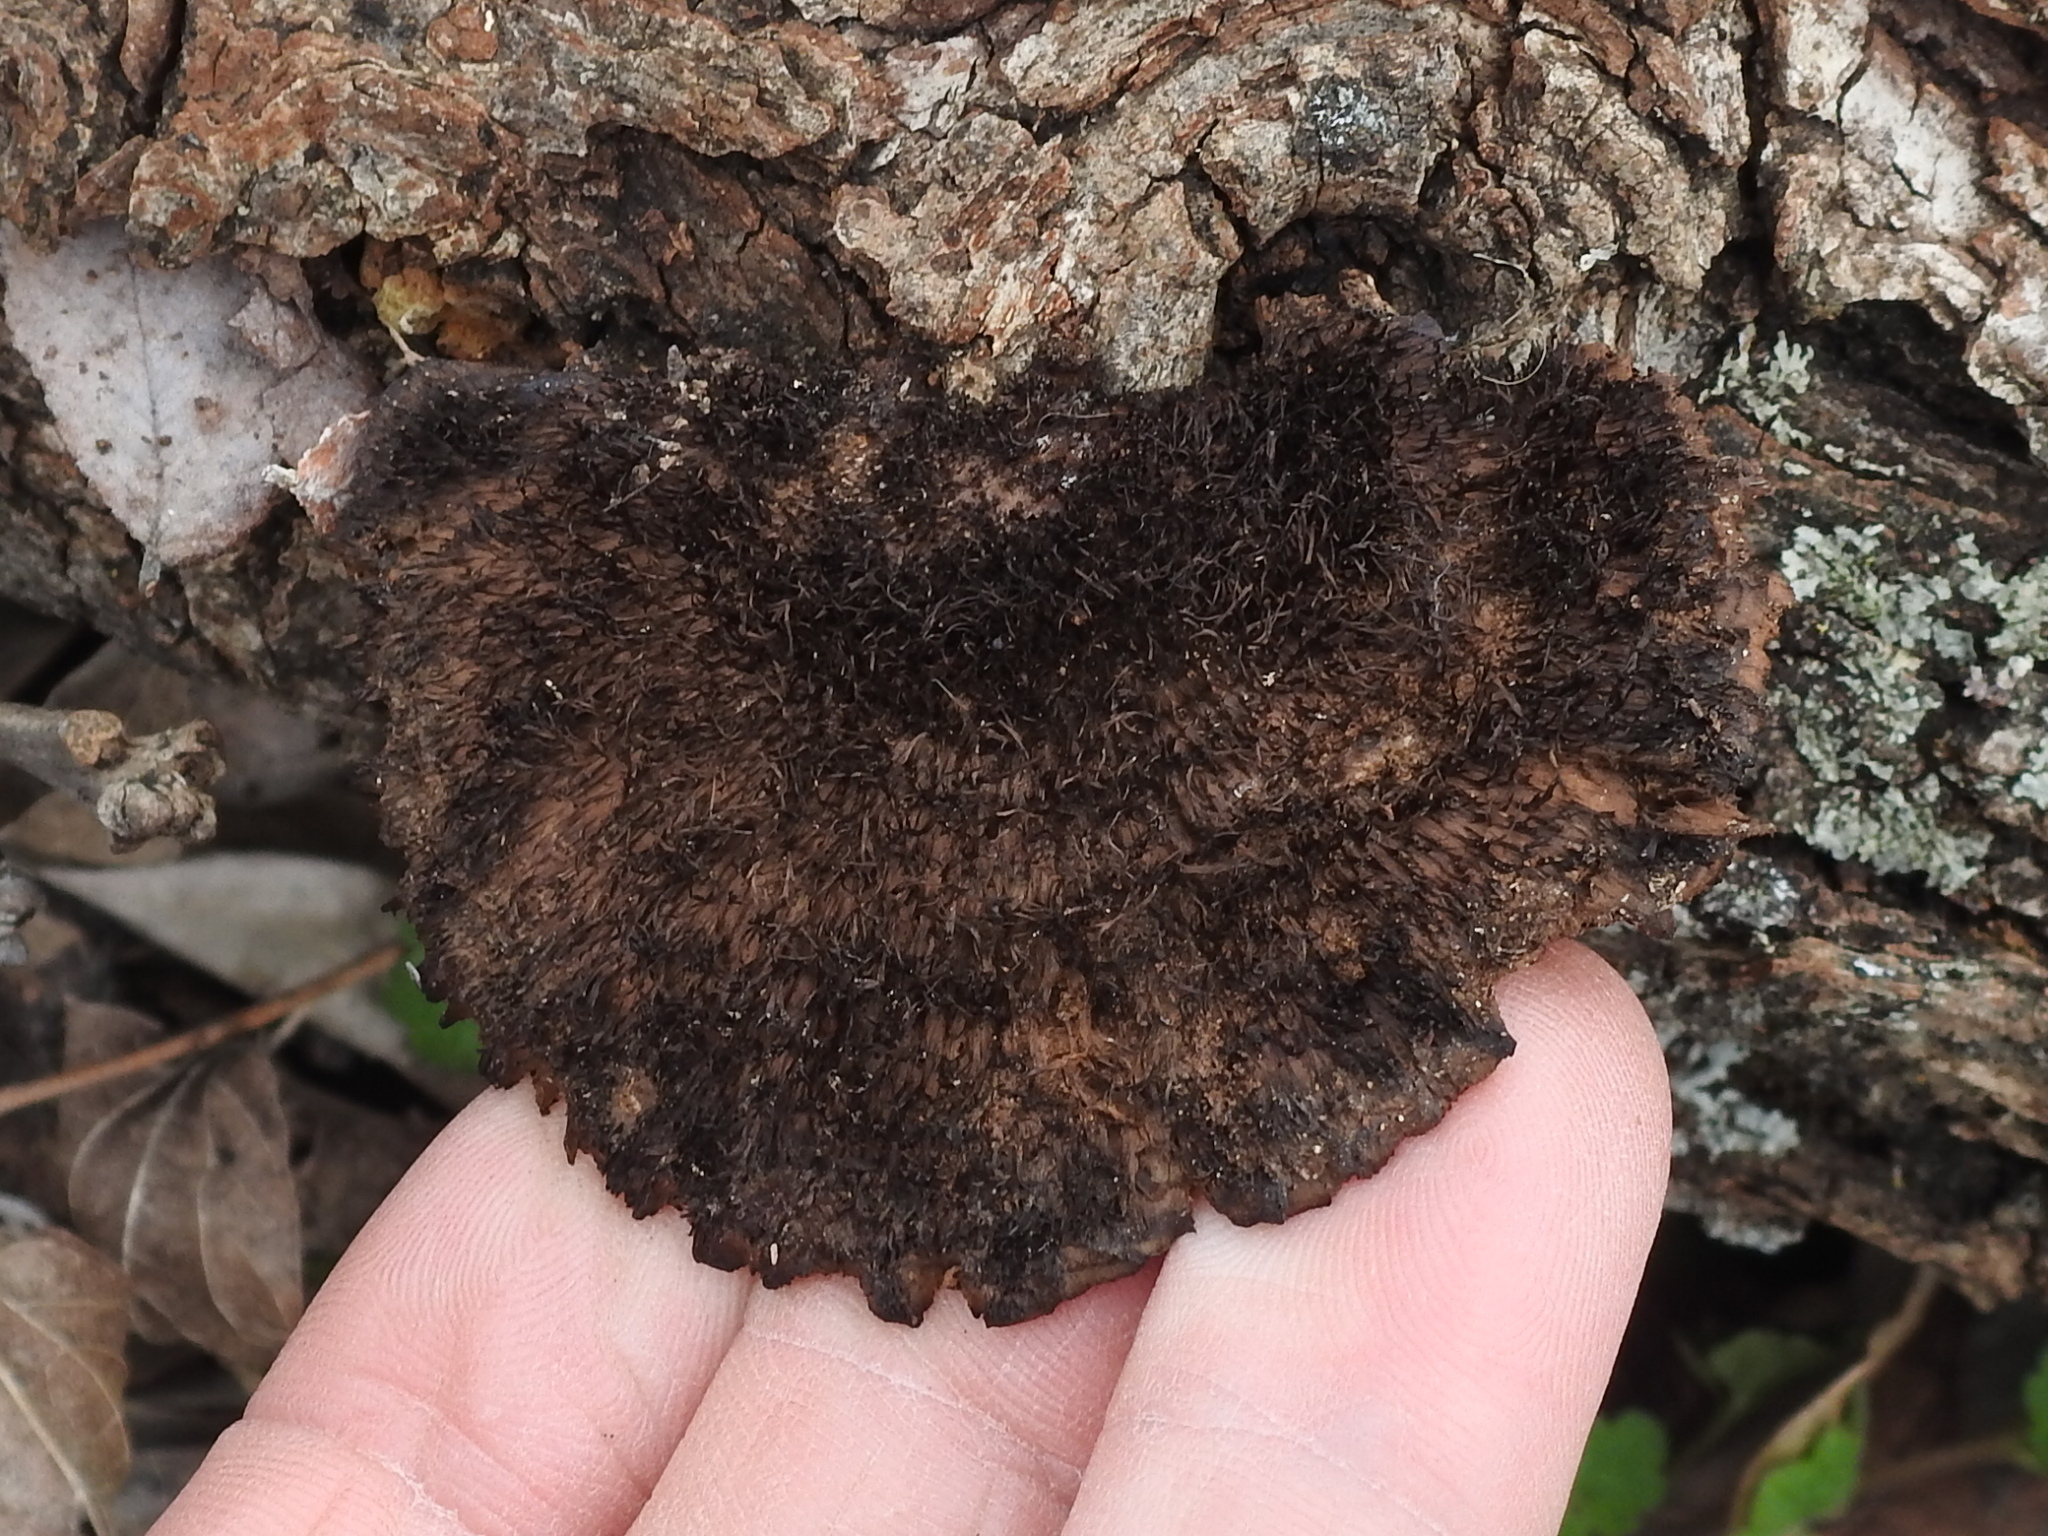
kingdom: Fungi
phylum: Basidiomycota
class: Agaricomycetes
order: Polyporales
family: Cerrenaceae
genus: Cerrena
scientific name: Cerrena hydnoides
